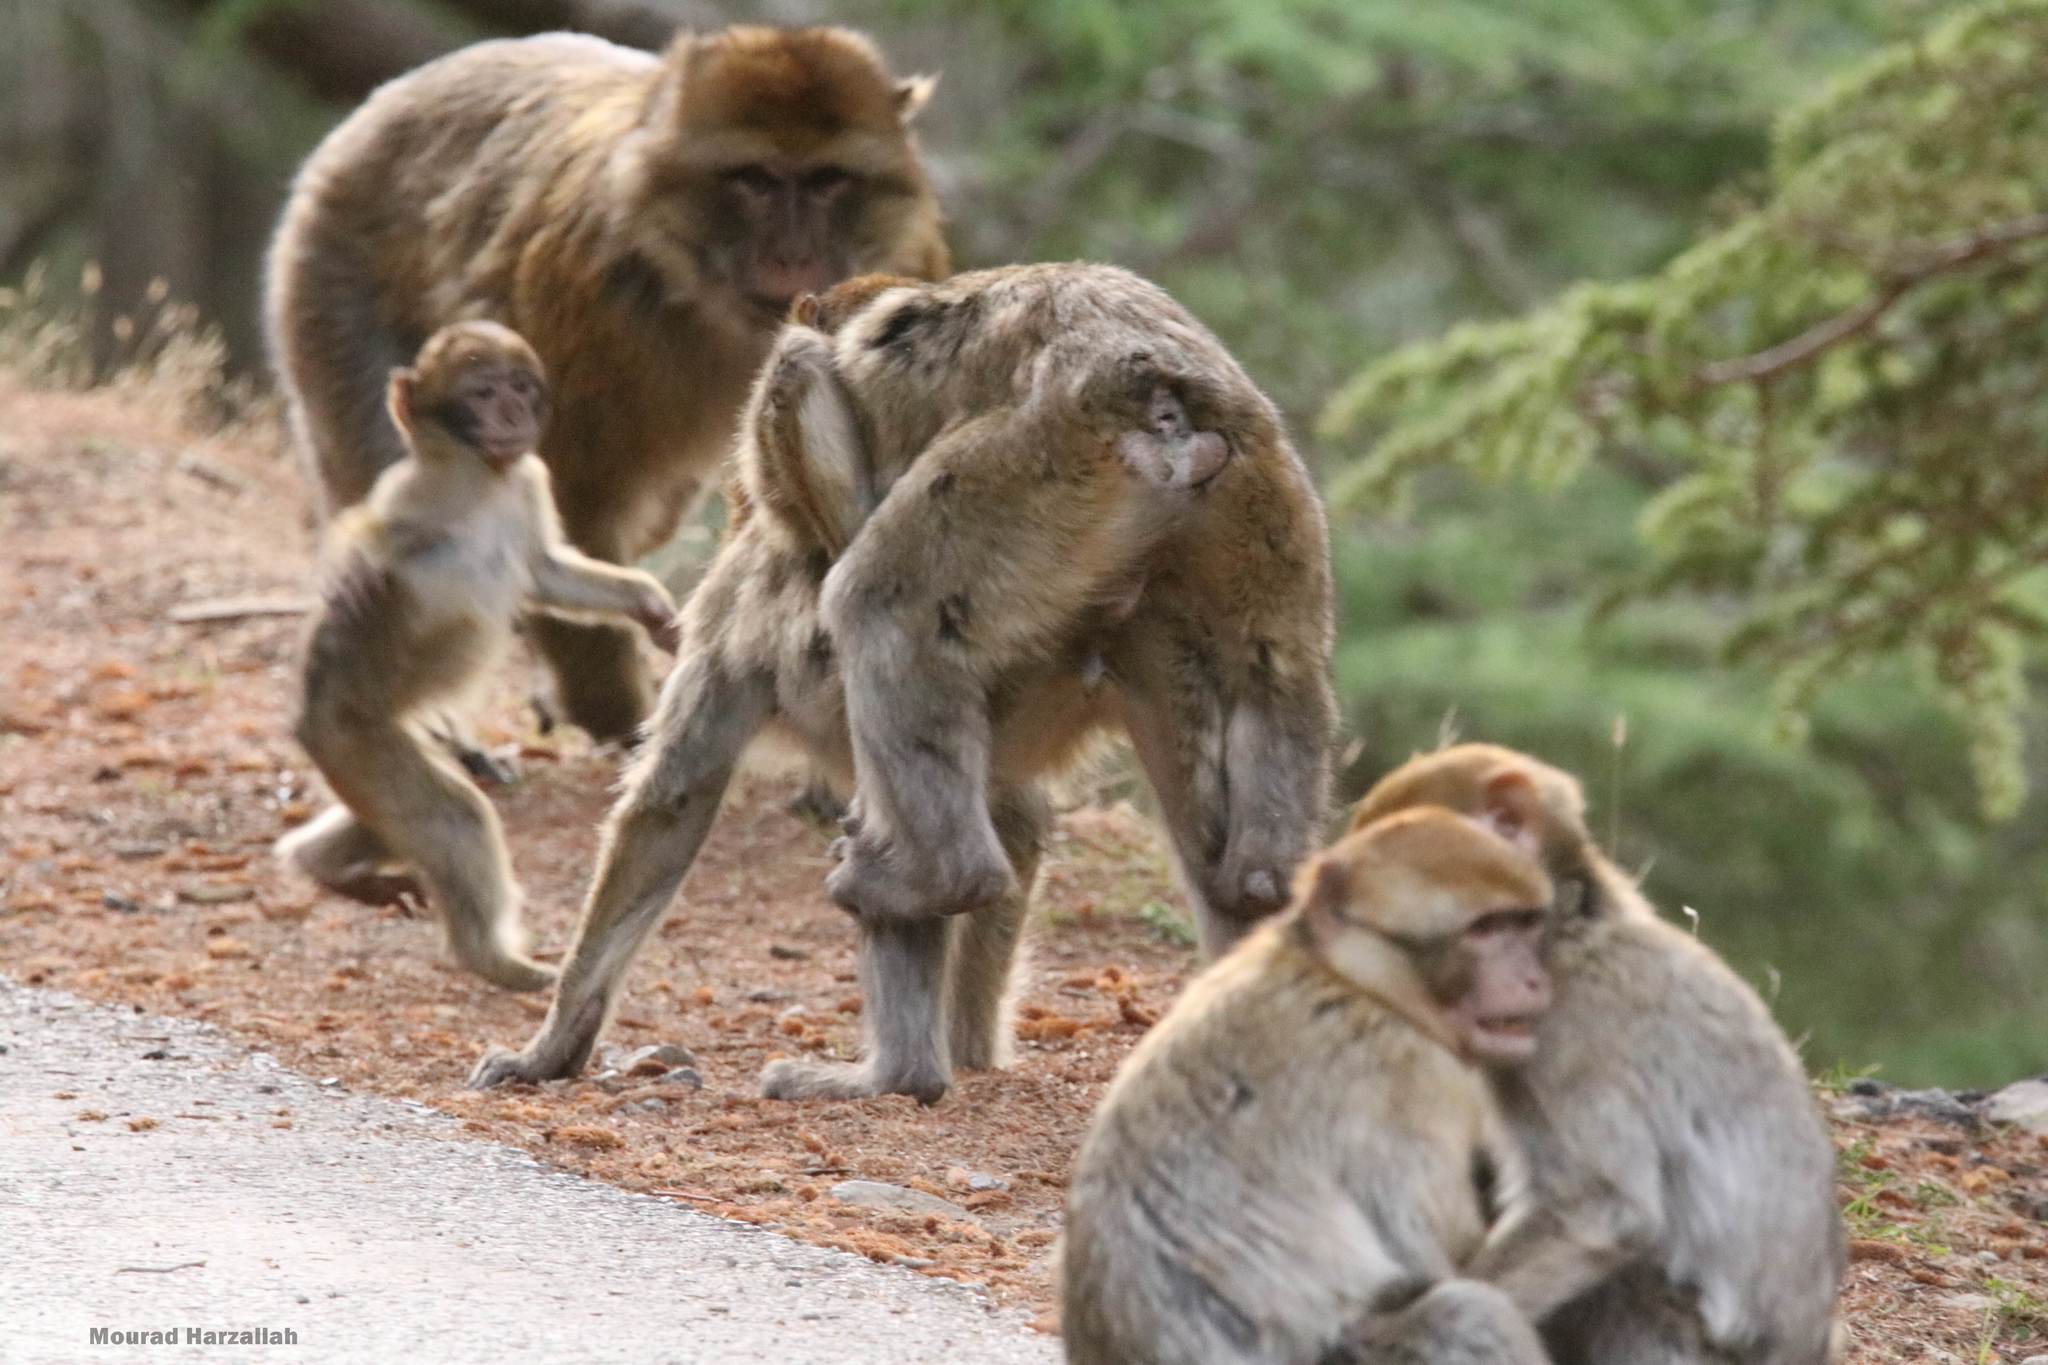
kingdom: Animalia
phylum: Chordata
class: Mammalia
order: Primates
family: Cercopithecidae
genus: Macaca
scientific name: Macaca sylvanus
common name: Barbary macaque
